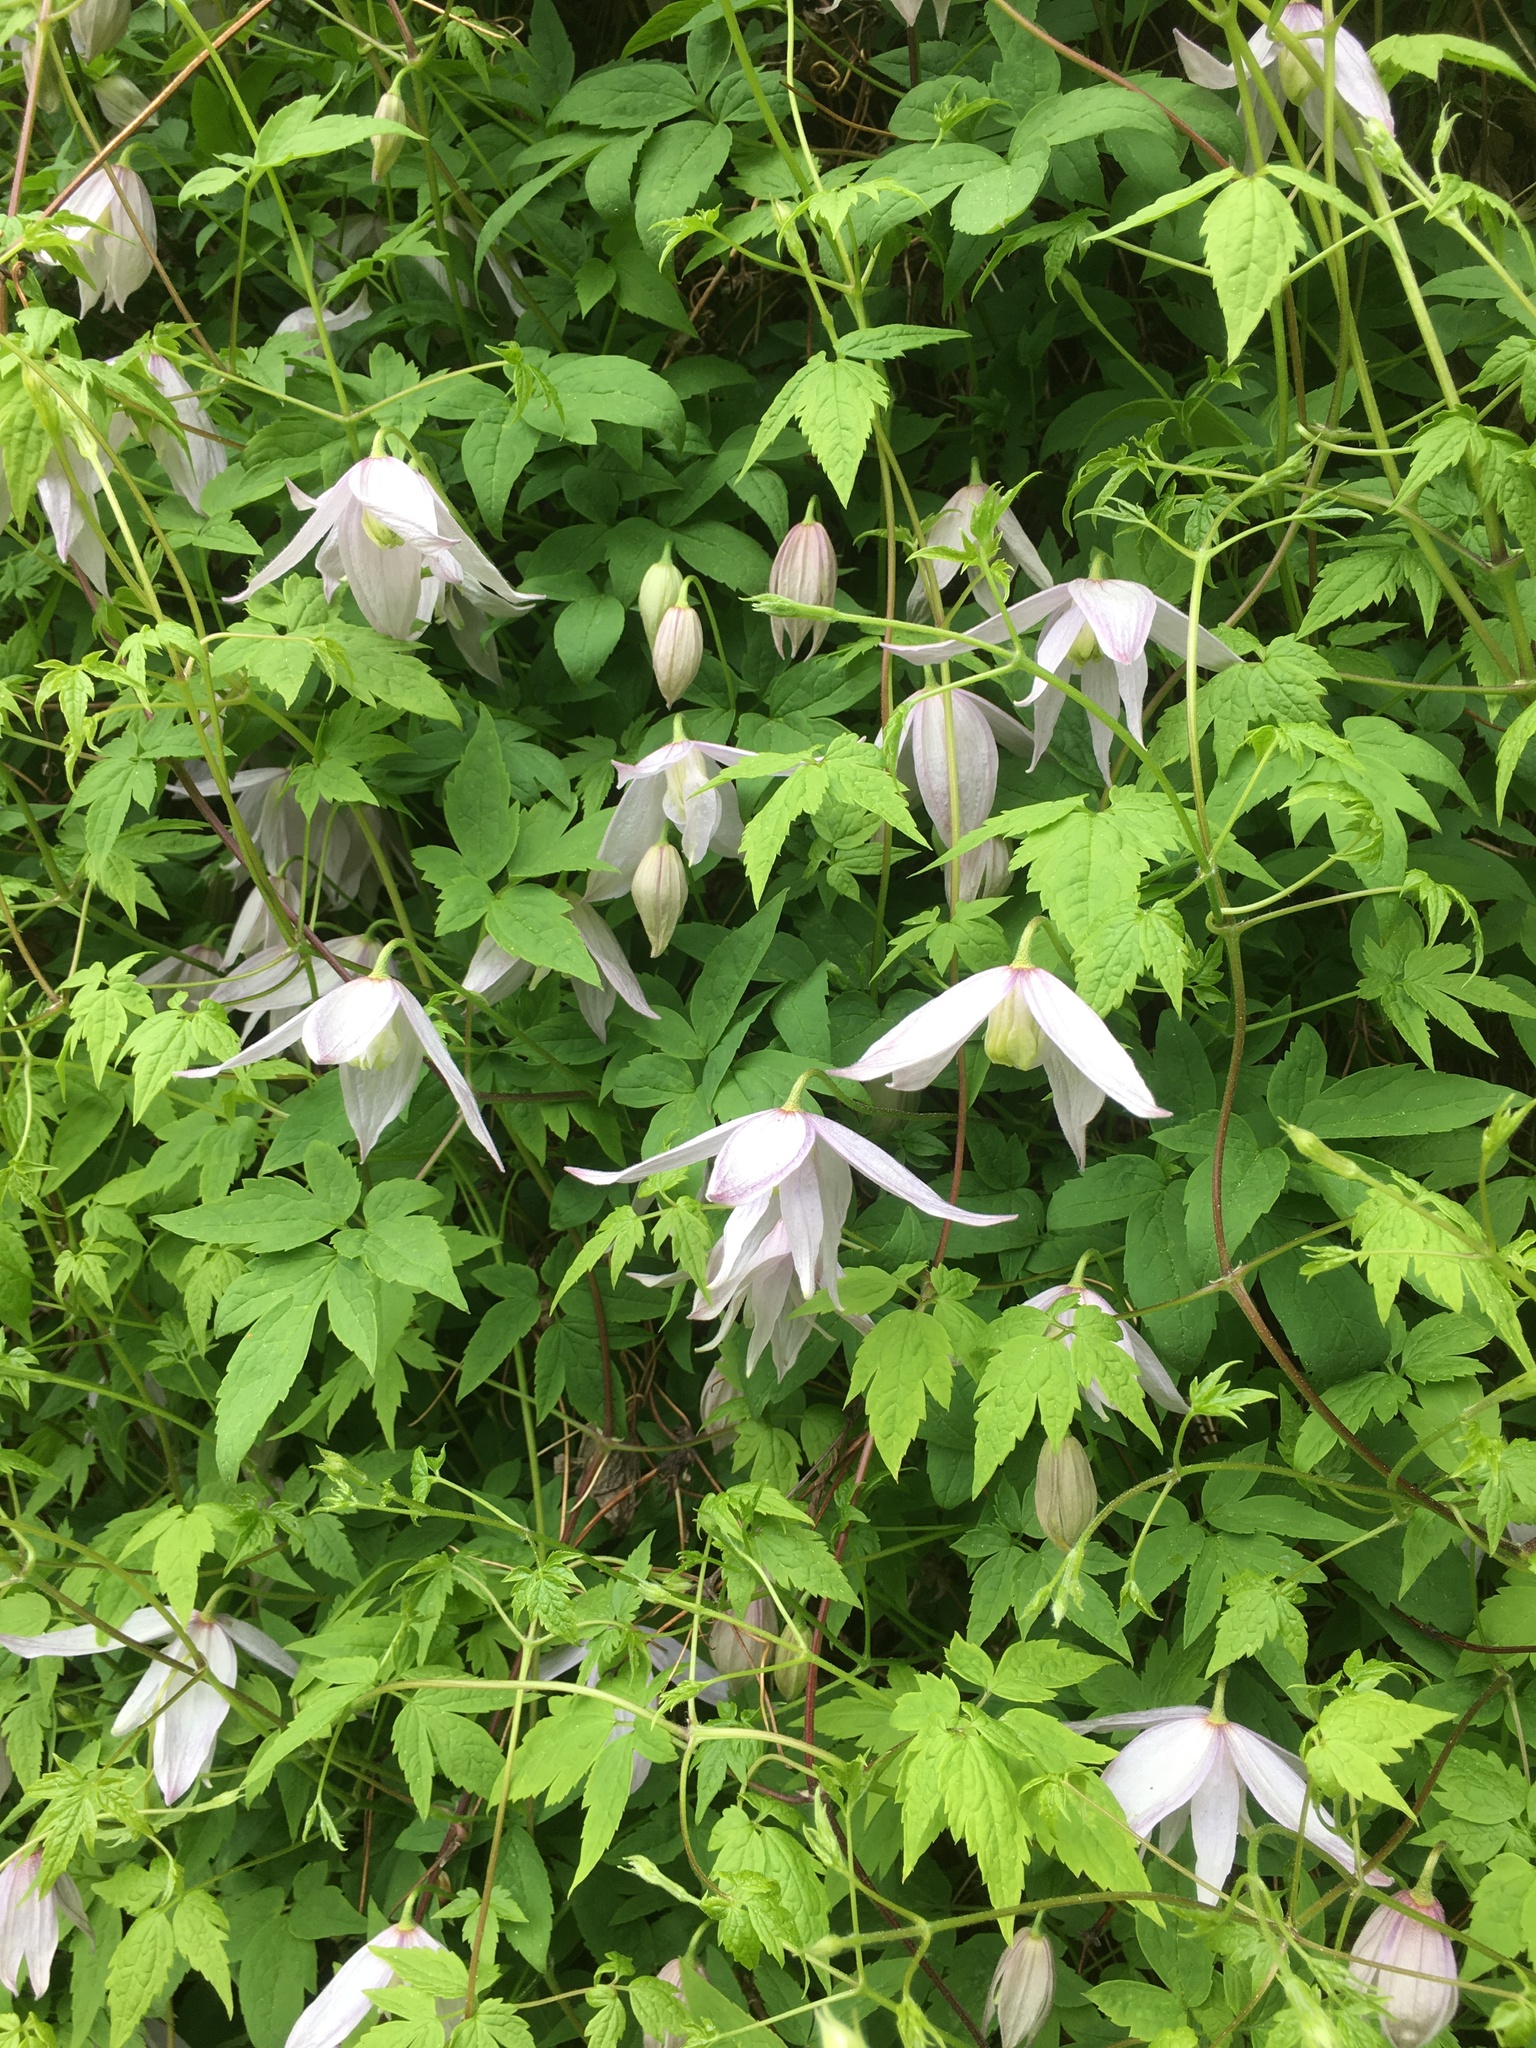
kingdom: Plantae
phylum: Tracheophyta
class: Magnoliopsida
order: Ranunculales
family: Ranunculaceae
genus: Clematis
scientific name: Clematis alpina
